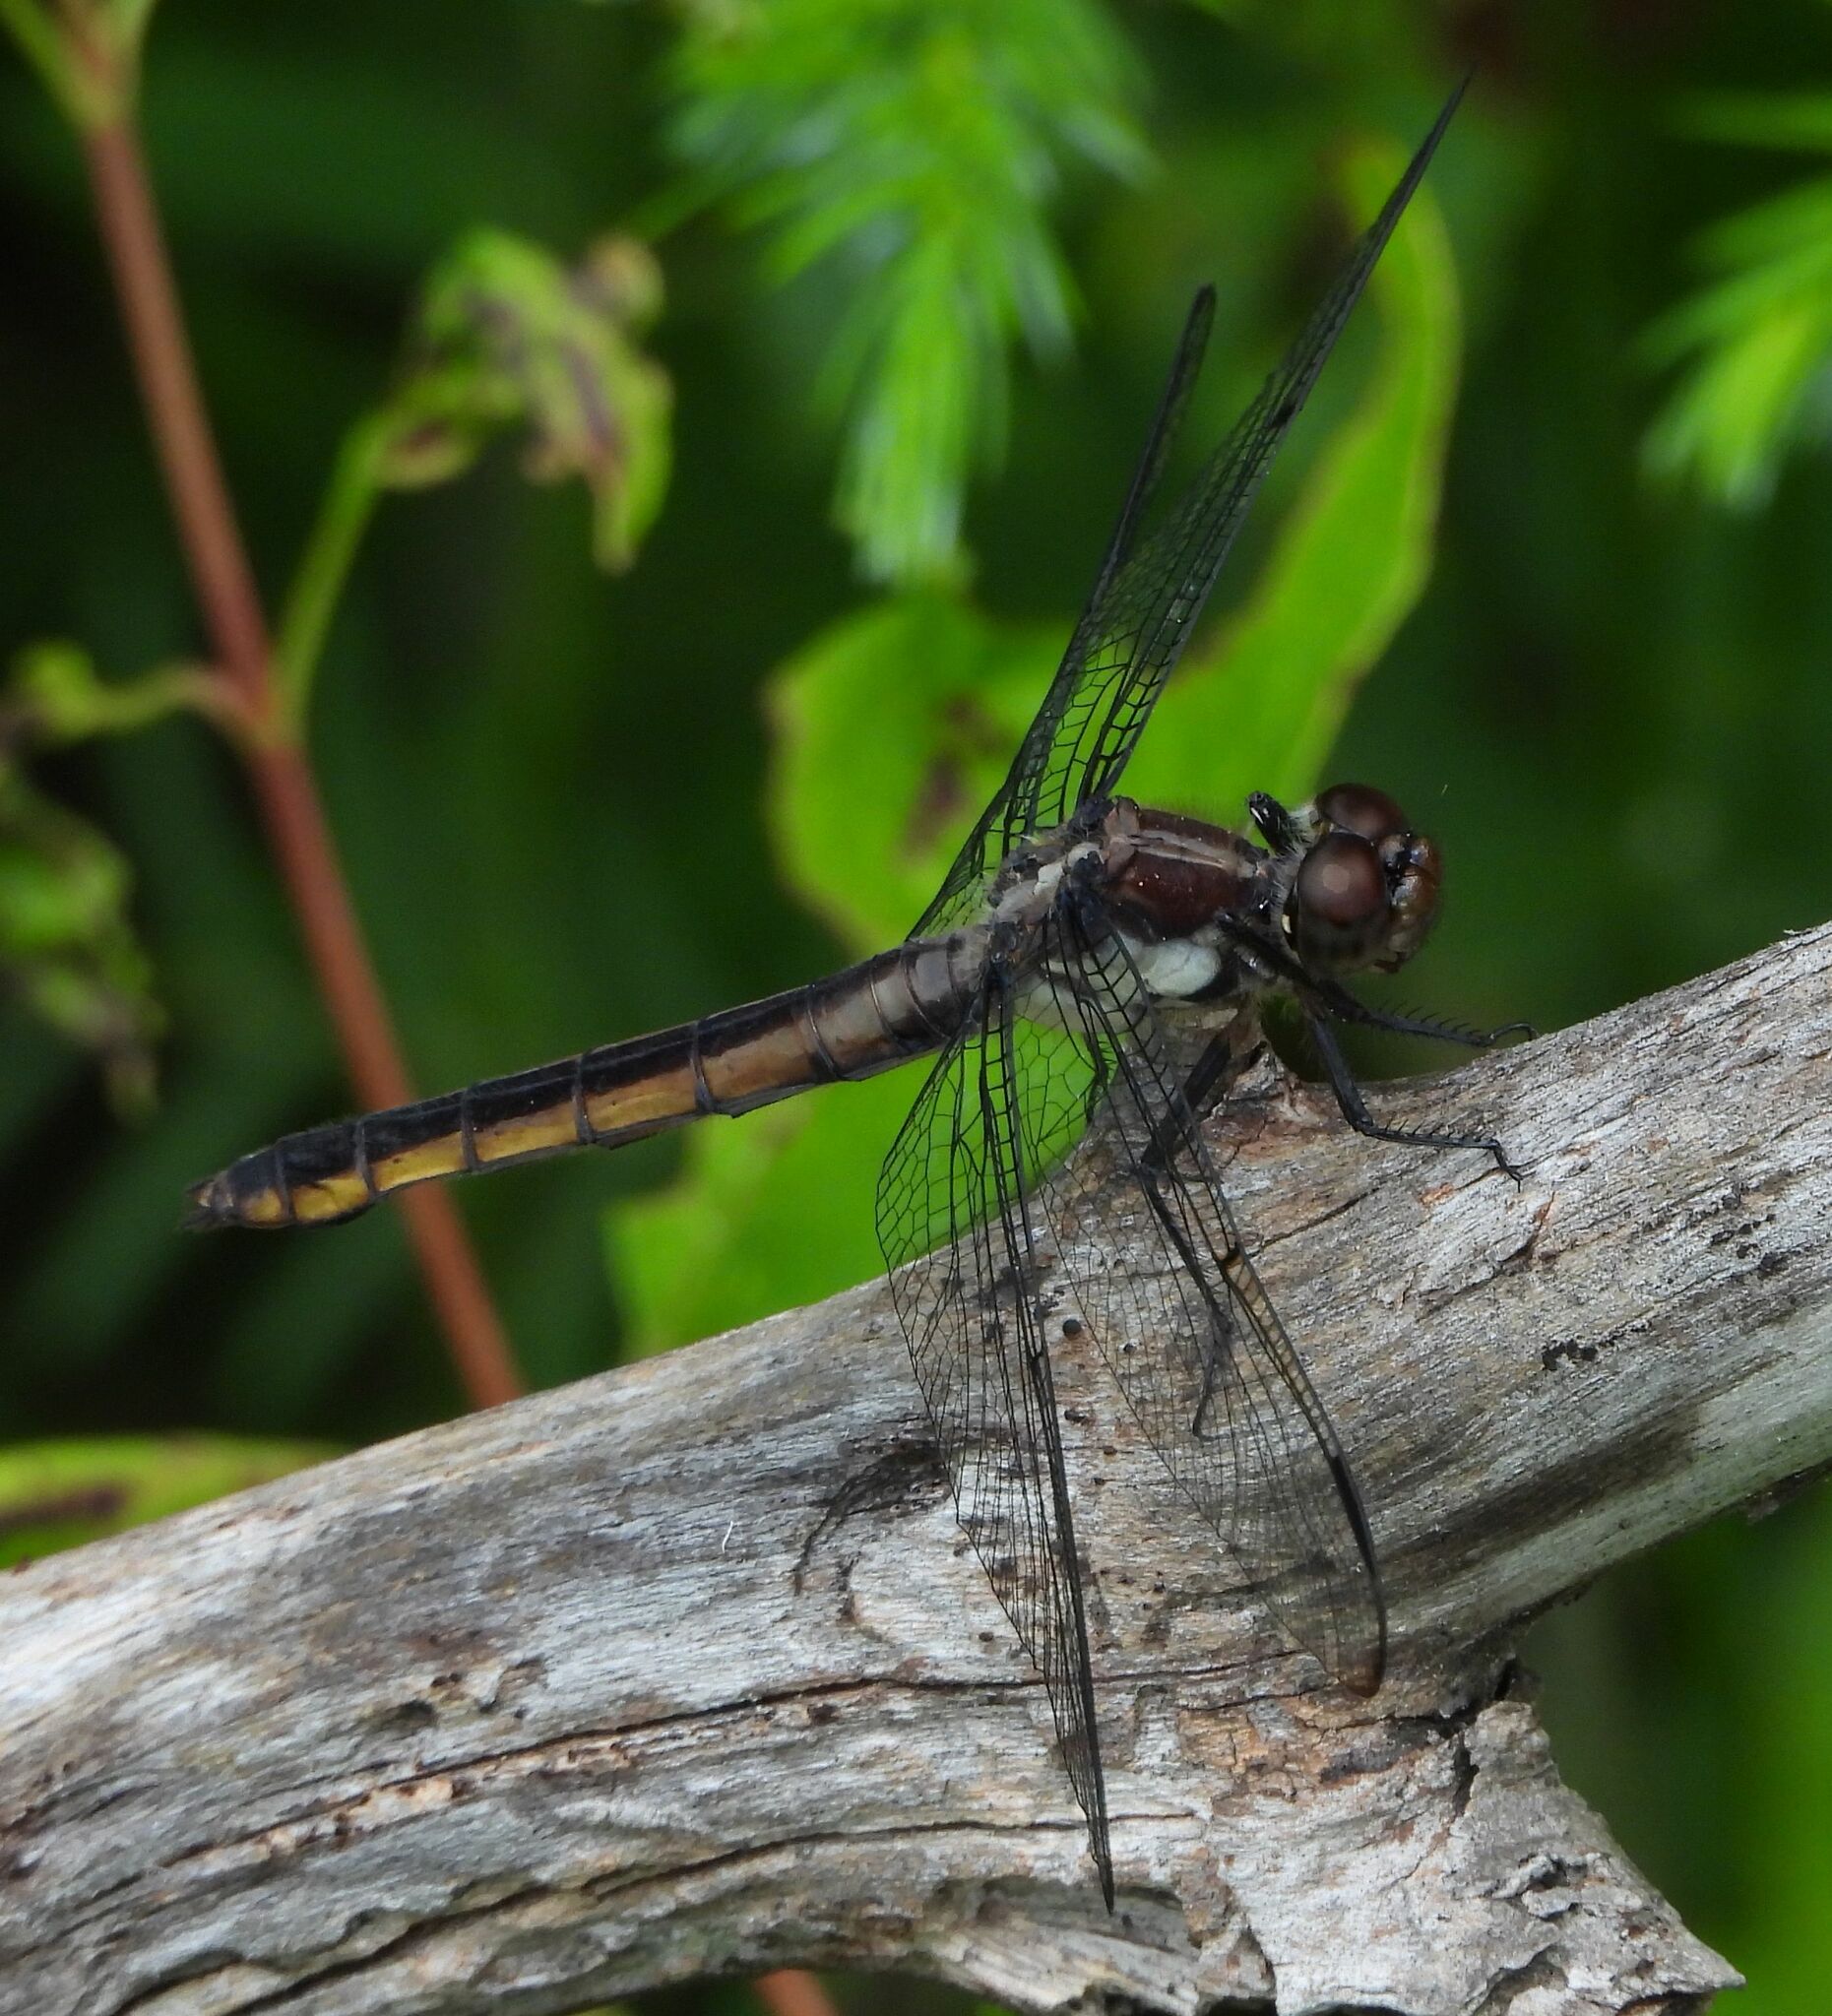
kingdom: Animalia
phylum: Arthropoda
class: Insecta
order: Odonata
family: Libellulidae
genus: Libellula
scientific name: Libellula incesta
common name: Slaty skimmer
